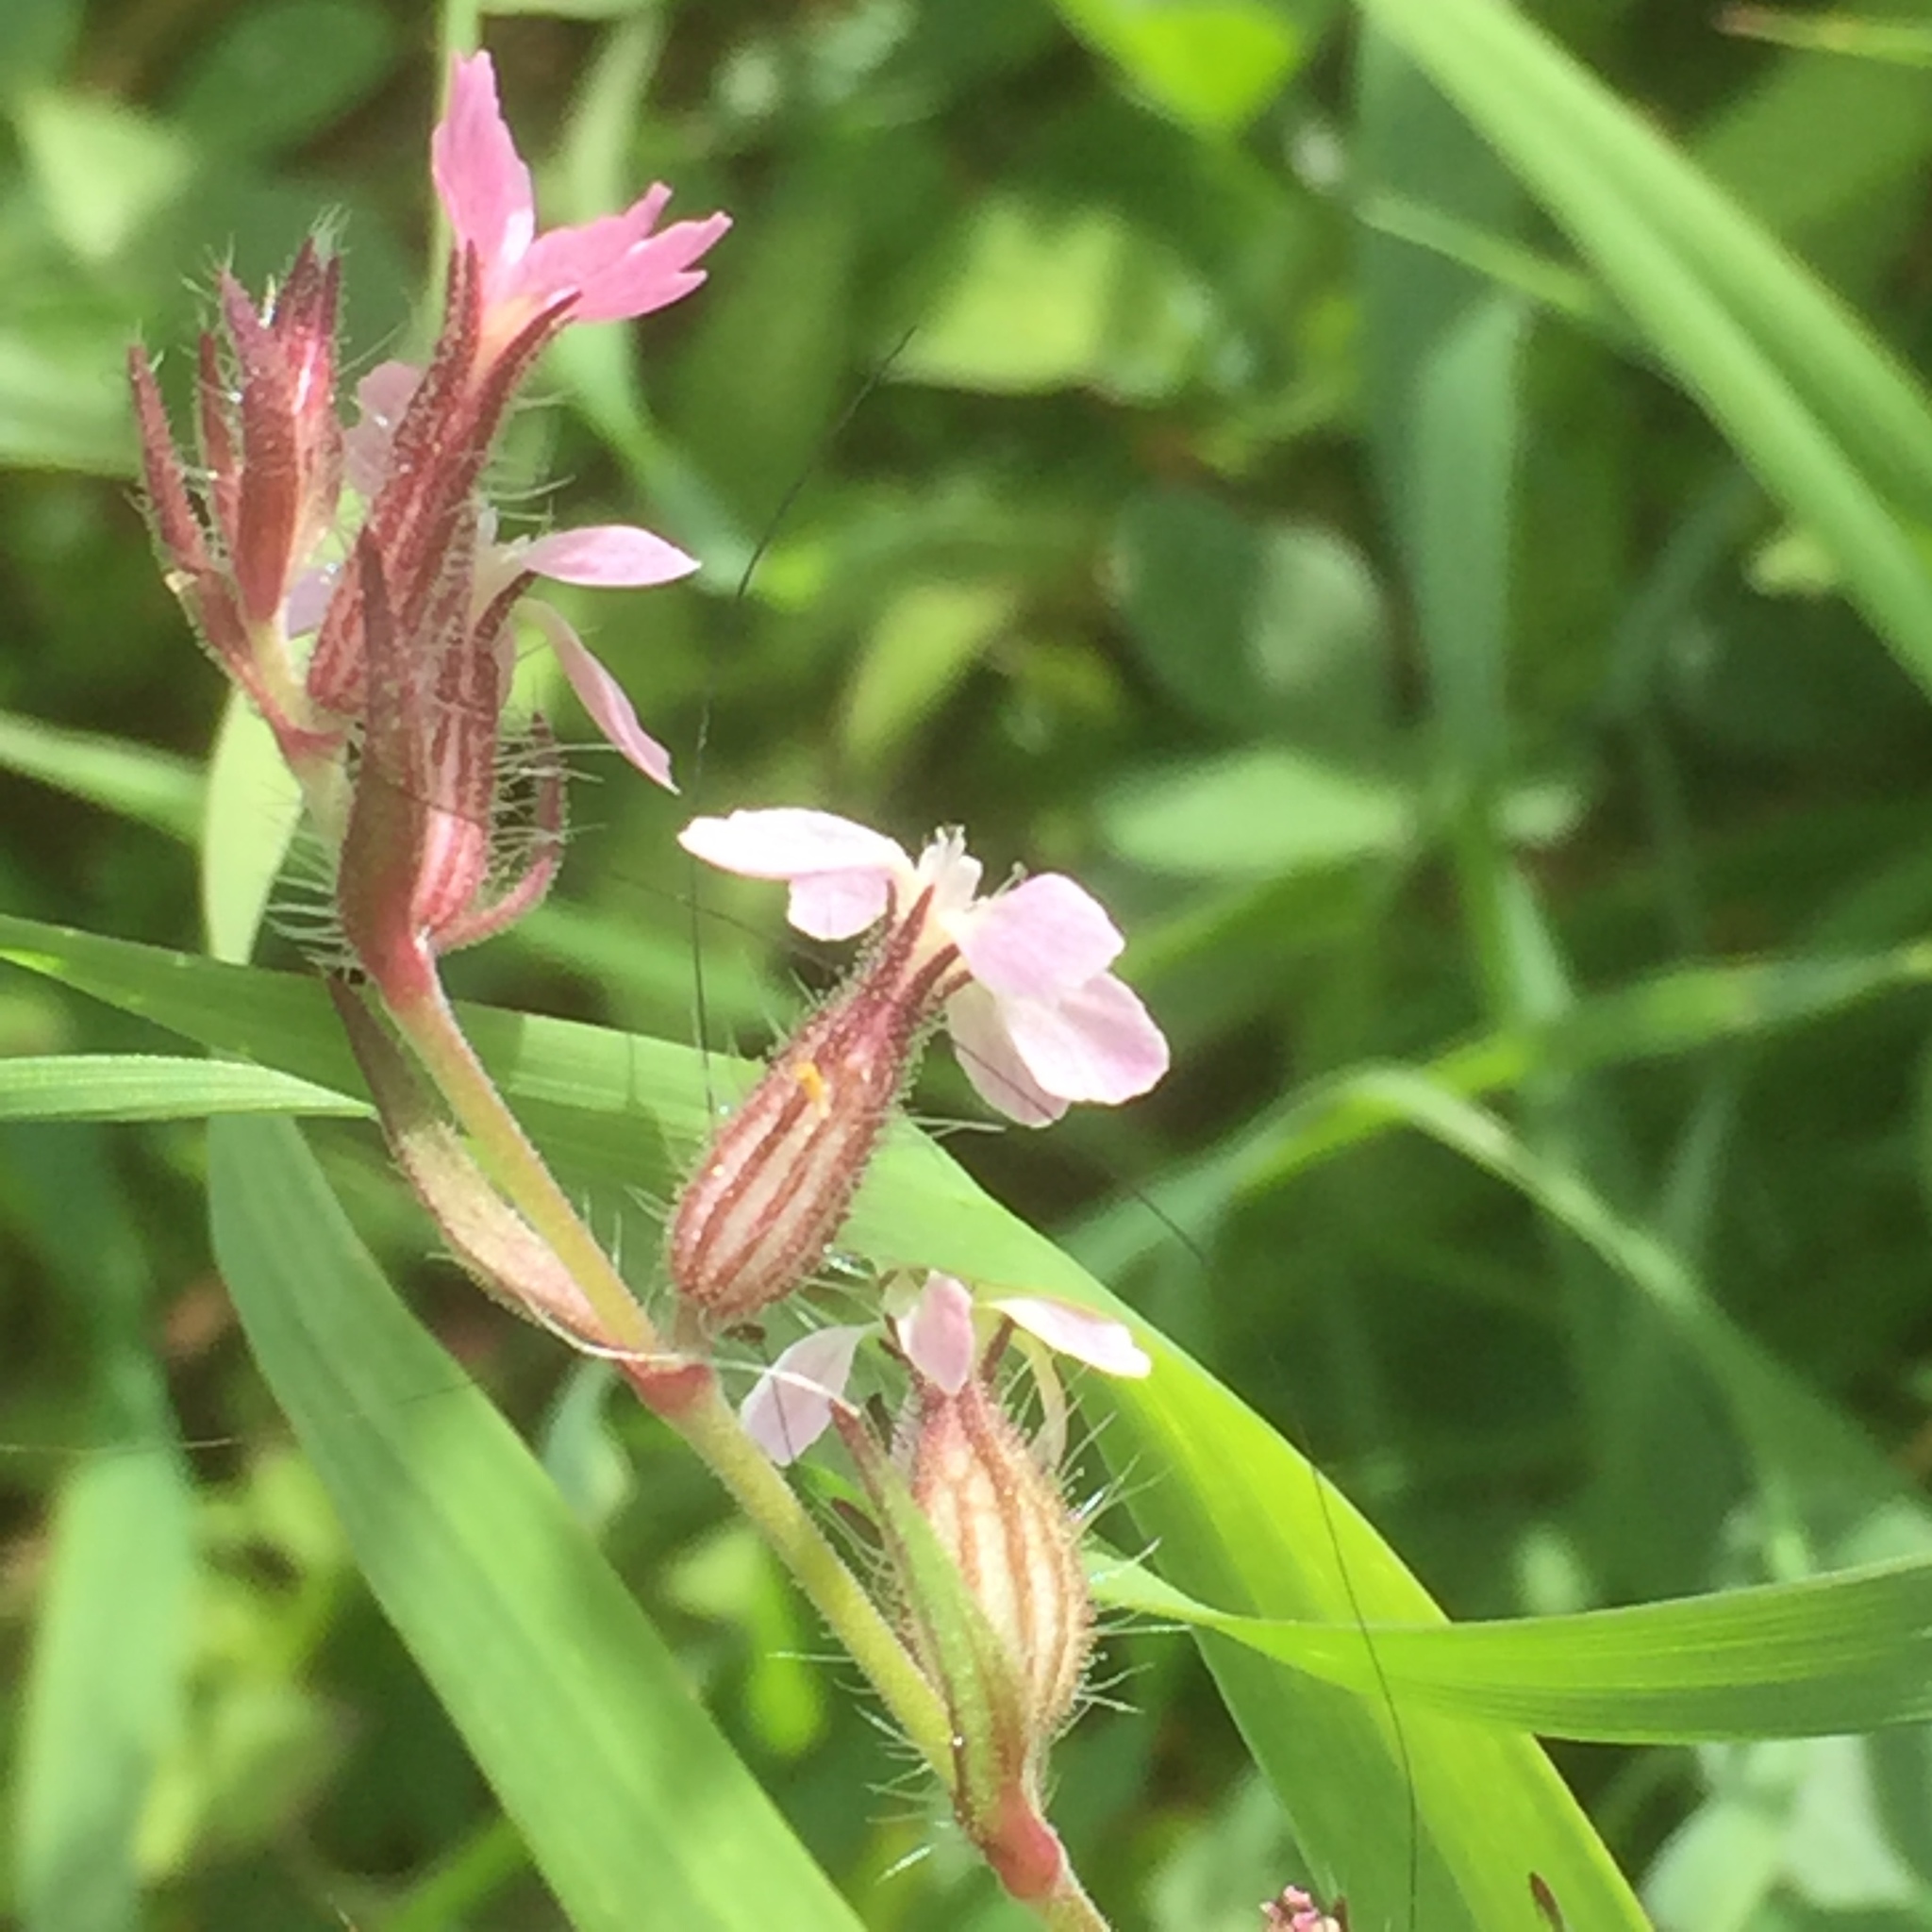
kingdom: Plantae
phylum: Tracheophyta
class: Magnoliopsida
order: Caryophyllales
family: Caryophyllaceae
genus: Silene
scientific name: Silene gallica
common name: Small-flowered catchfly
